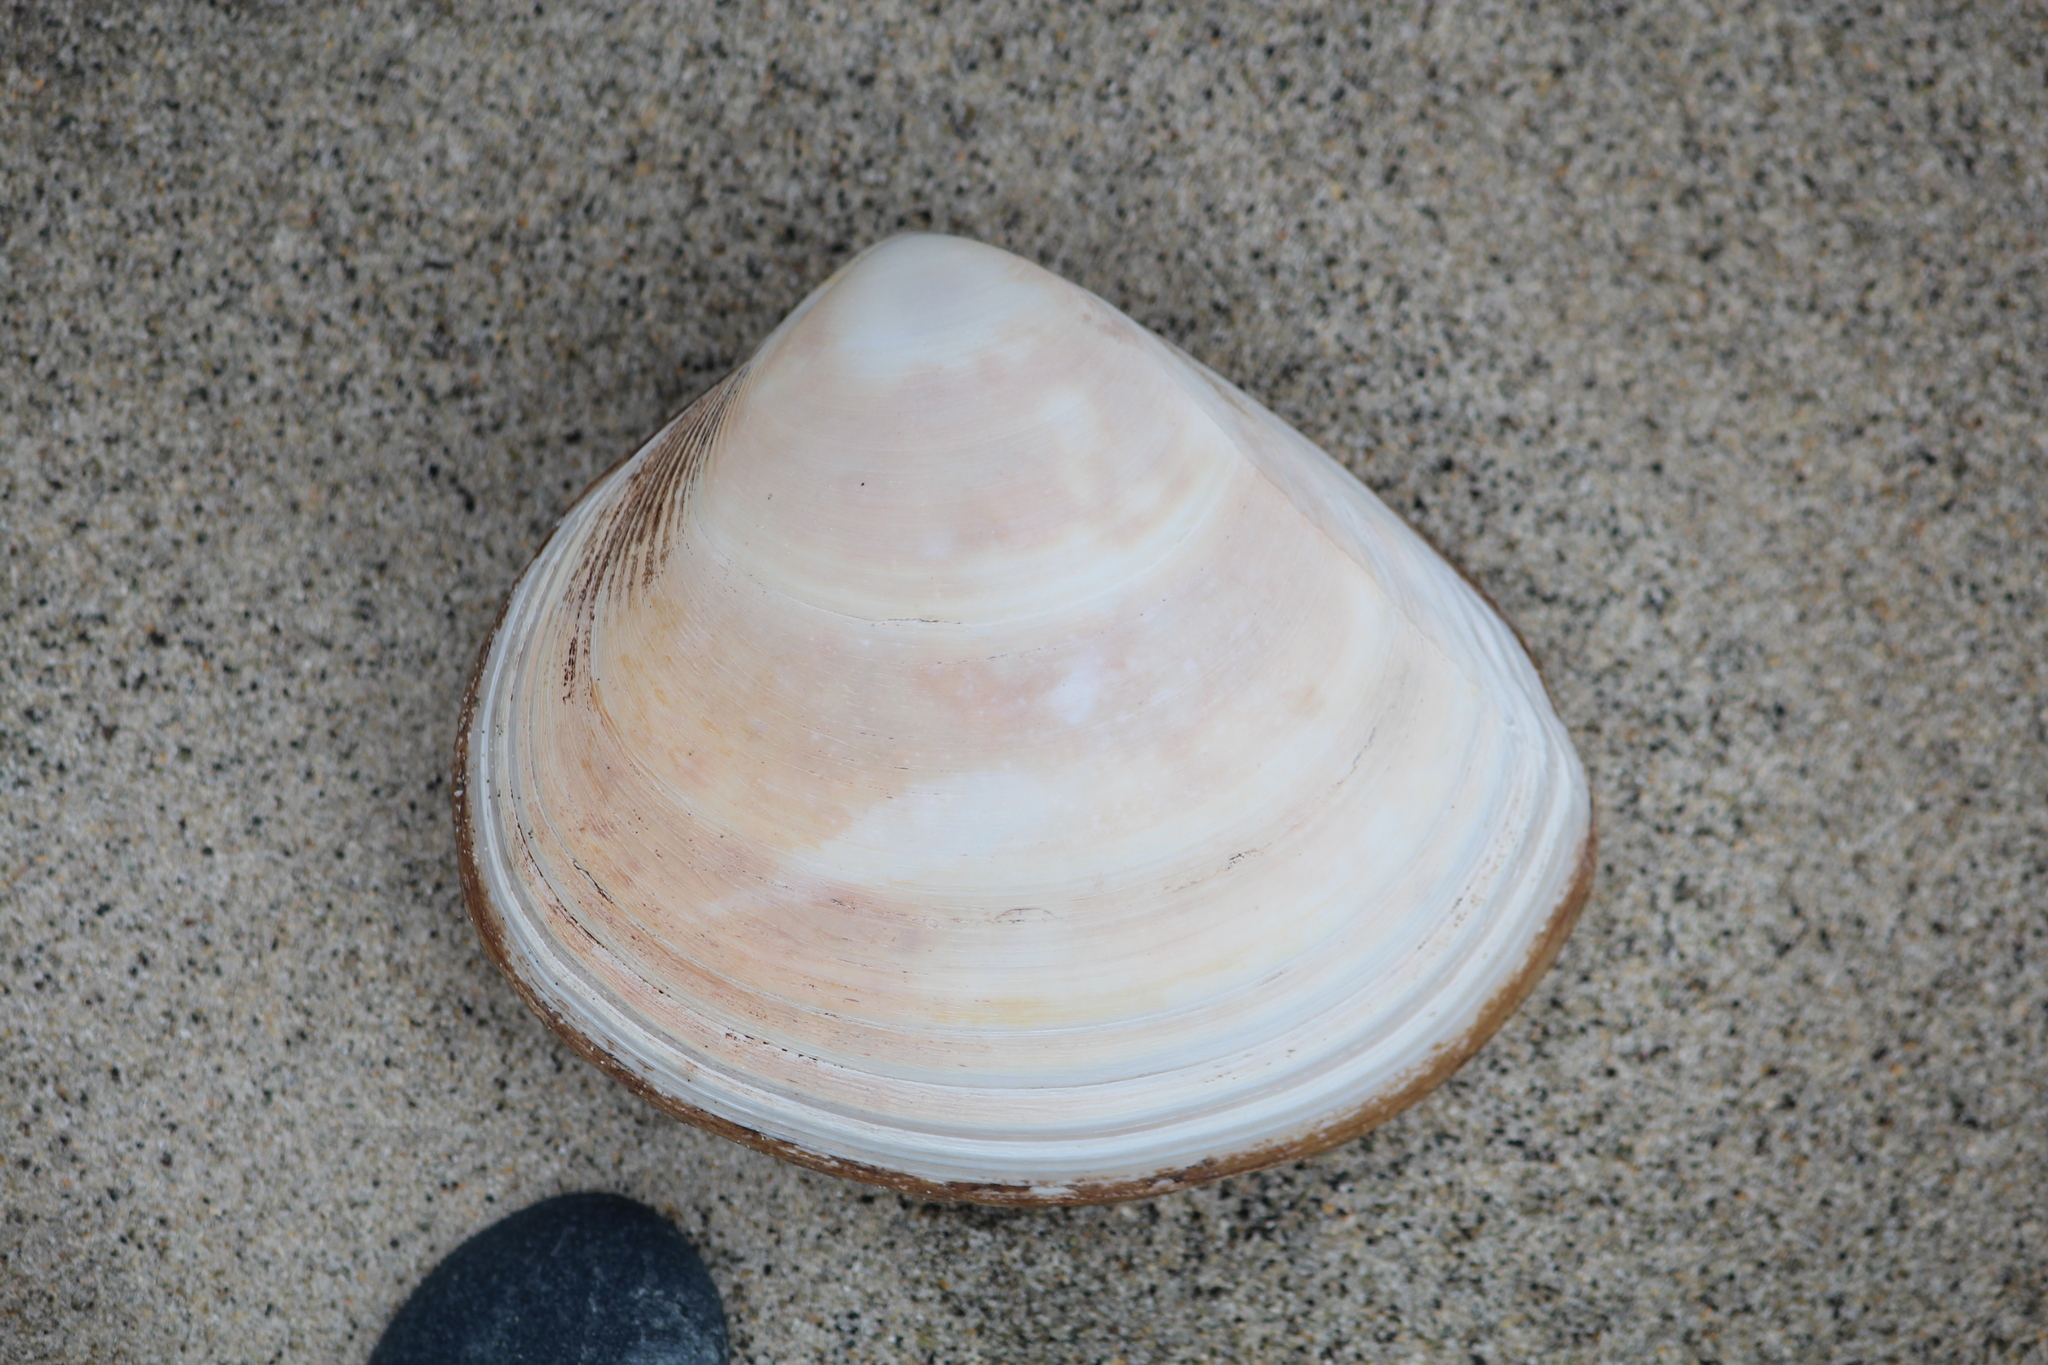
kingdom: Animalia
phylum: Mollusca
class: Bivalvia
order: Venerida
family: Mactridae
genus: Spisula
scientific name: Spisula murchisoni
